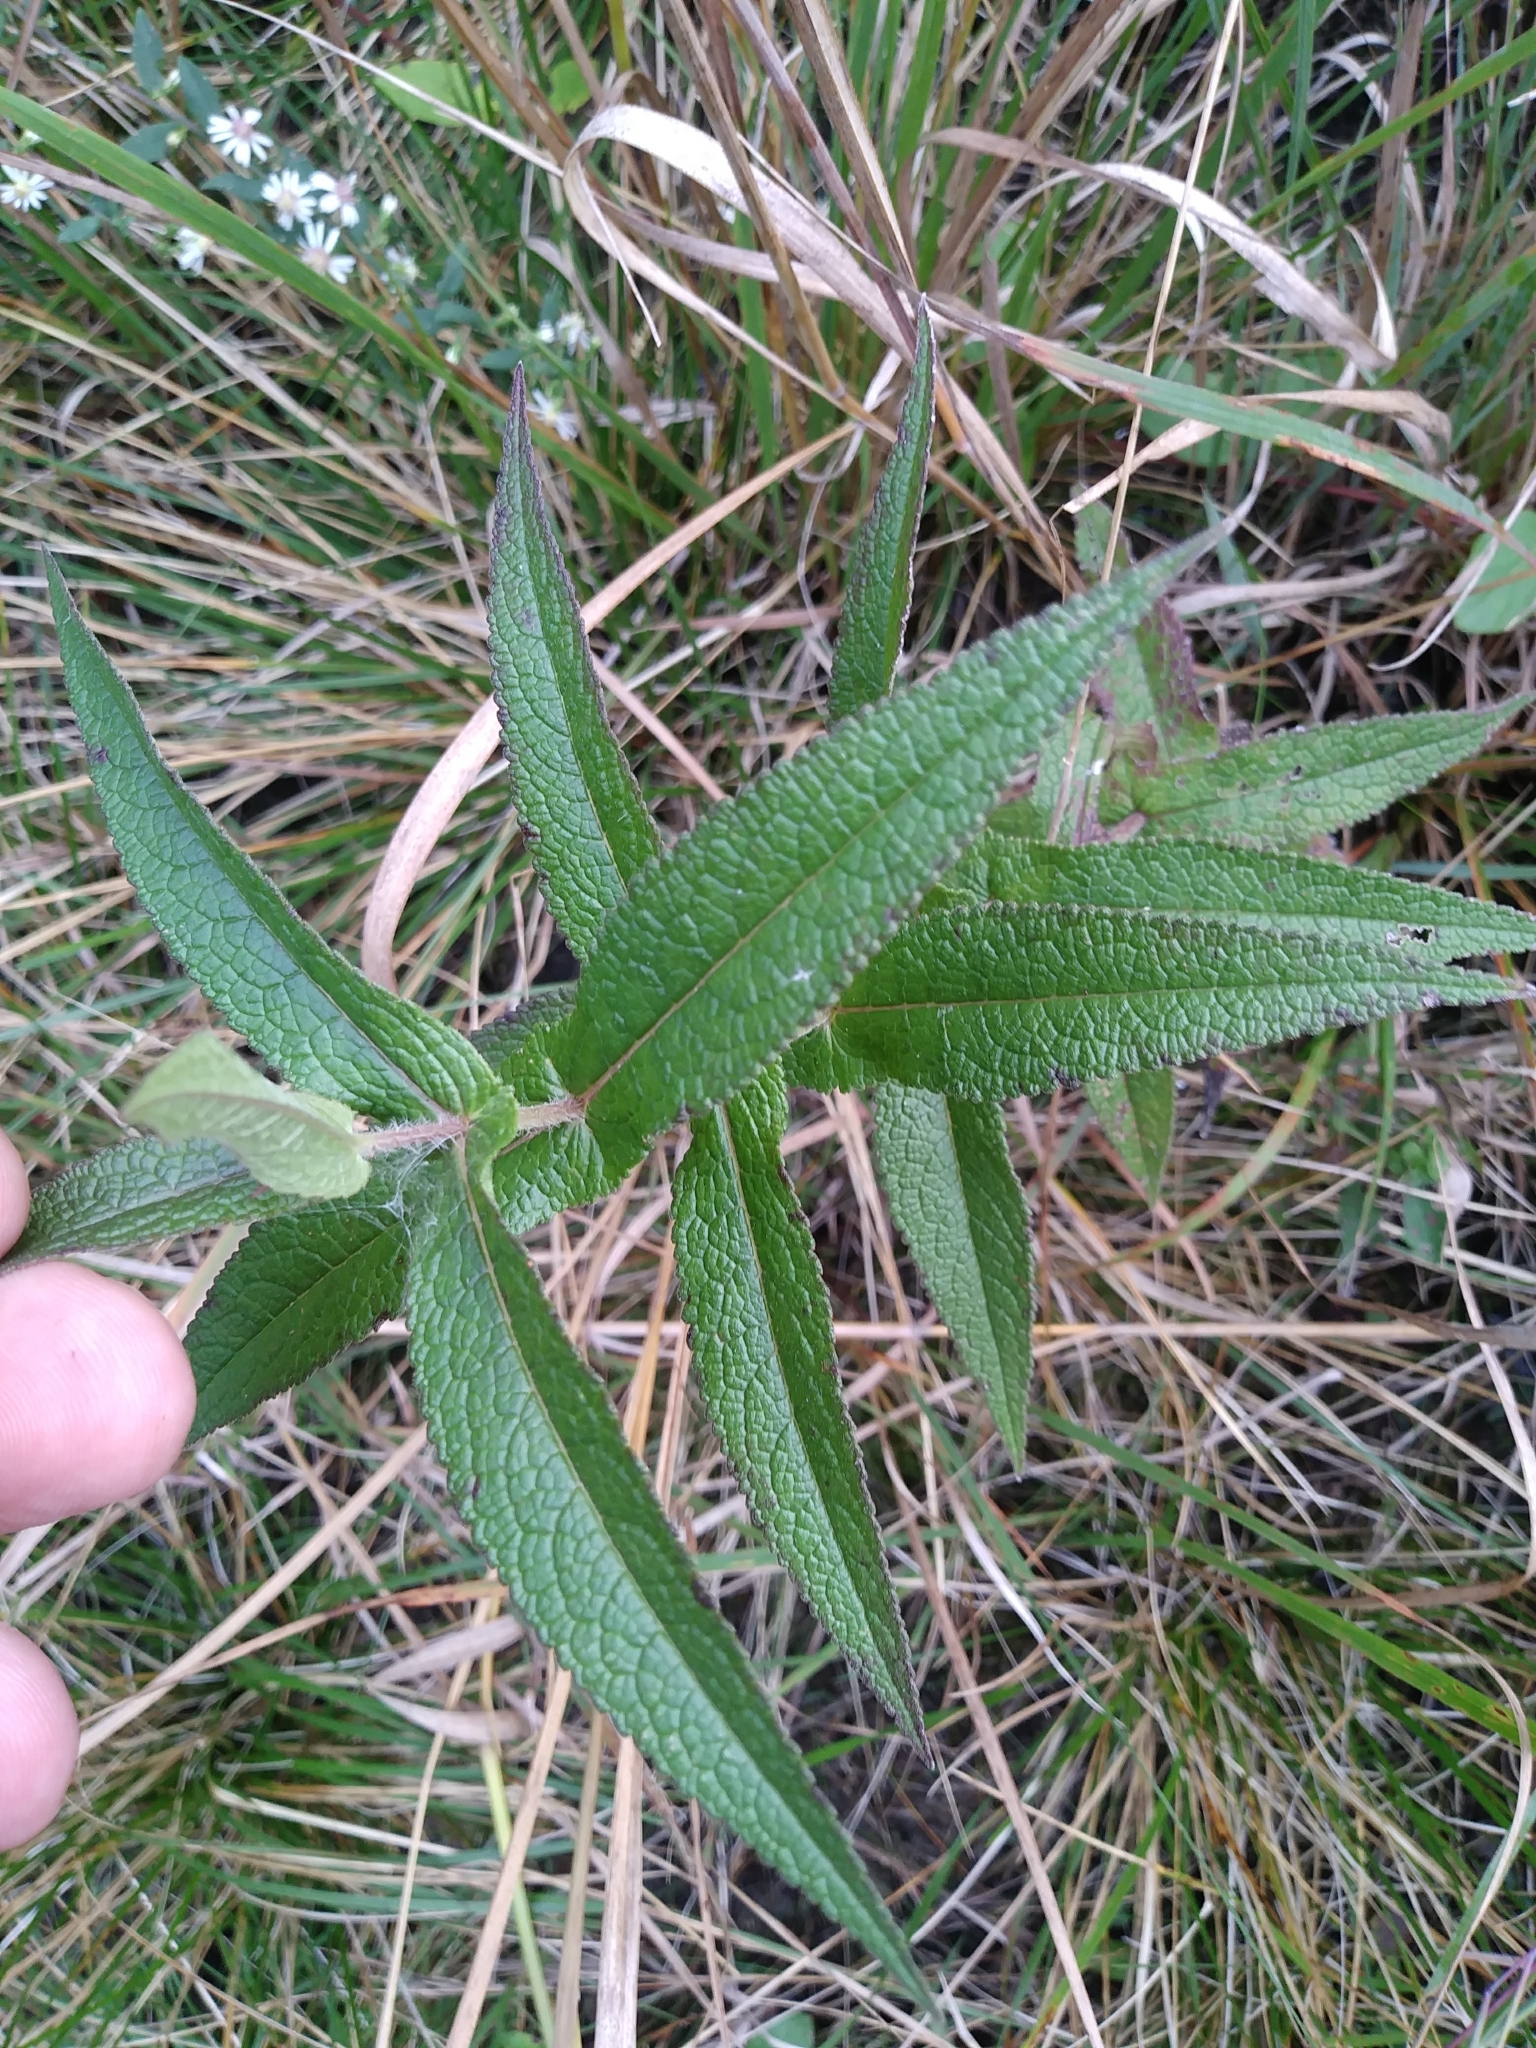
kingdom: Plantae
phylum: Tracheophyta
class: Magnoliopsida
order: Asterales
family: Asteraceae
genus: Eupatorium
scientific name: Eupatorium perfoliatum
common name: Boneset
